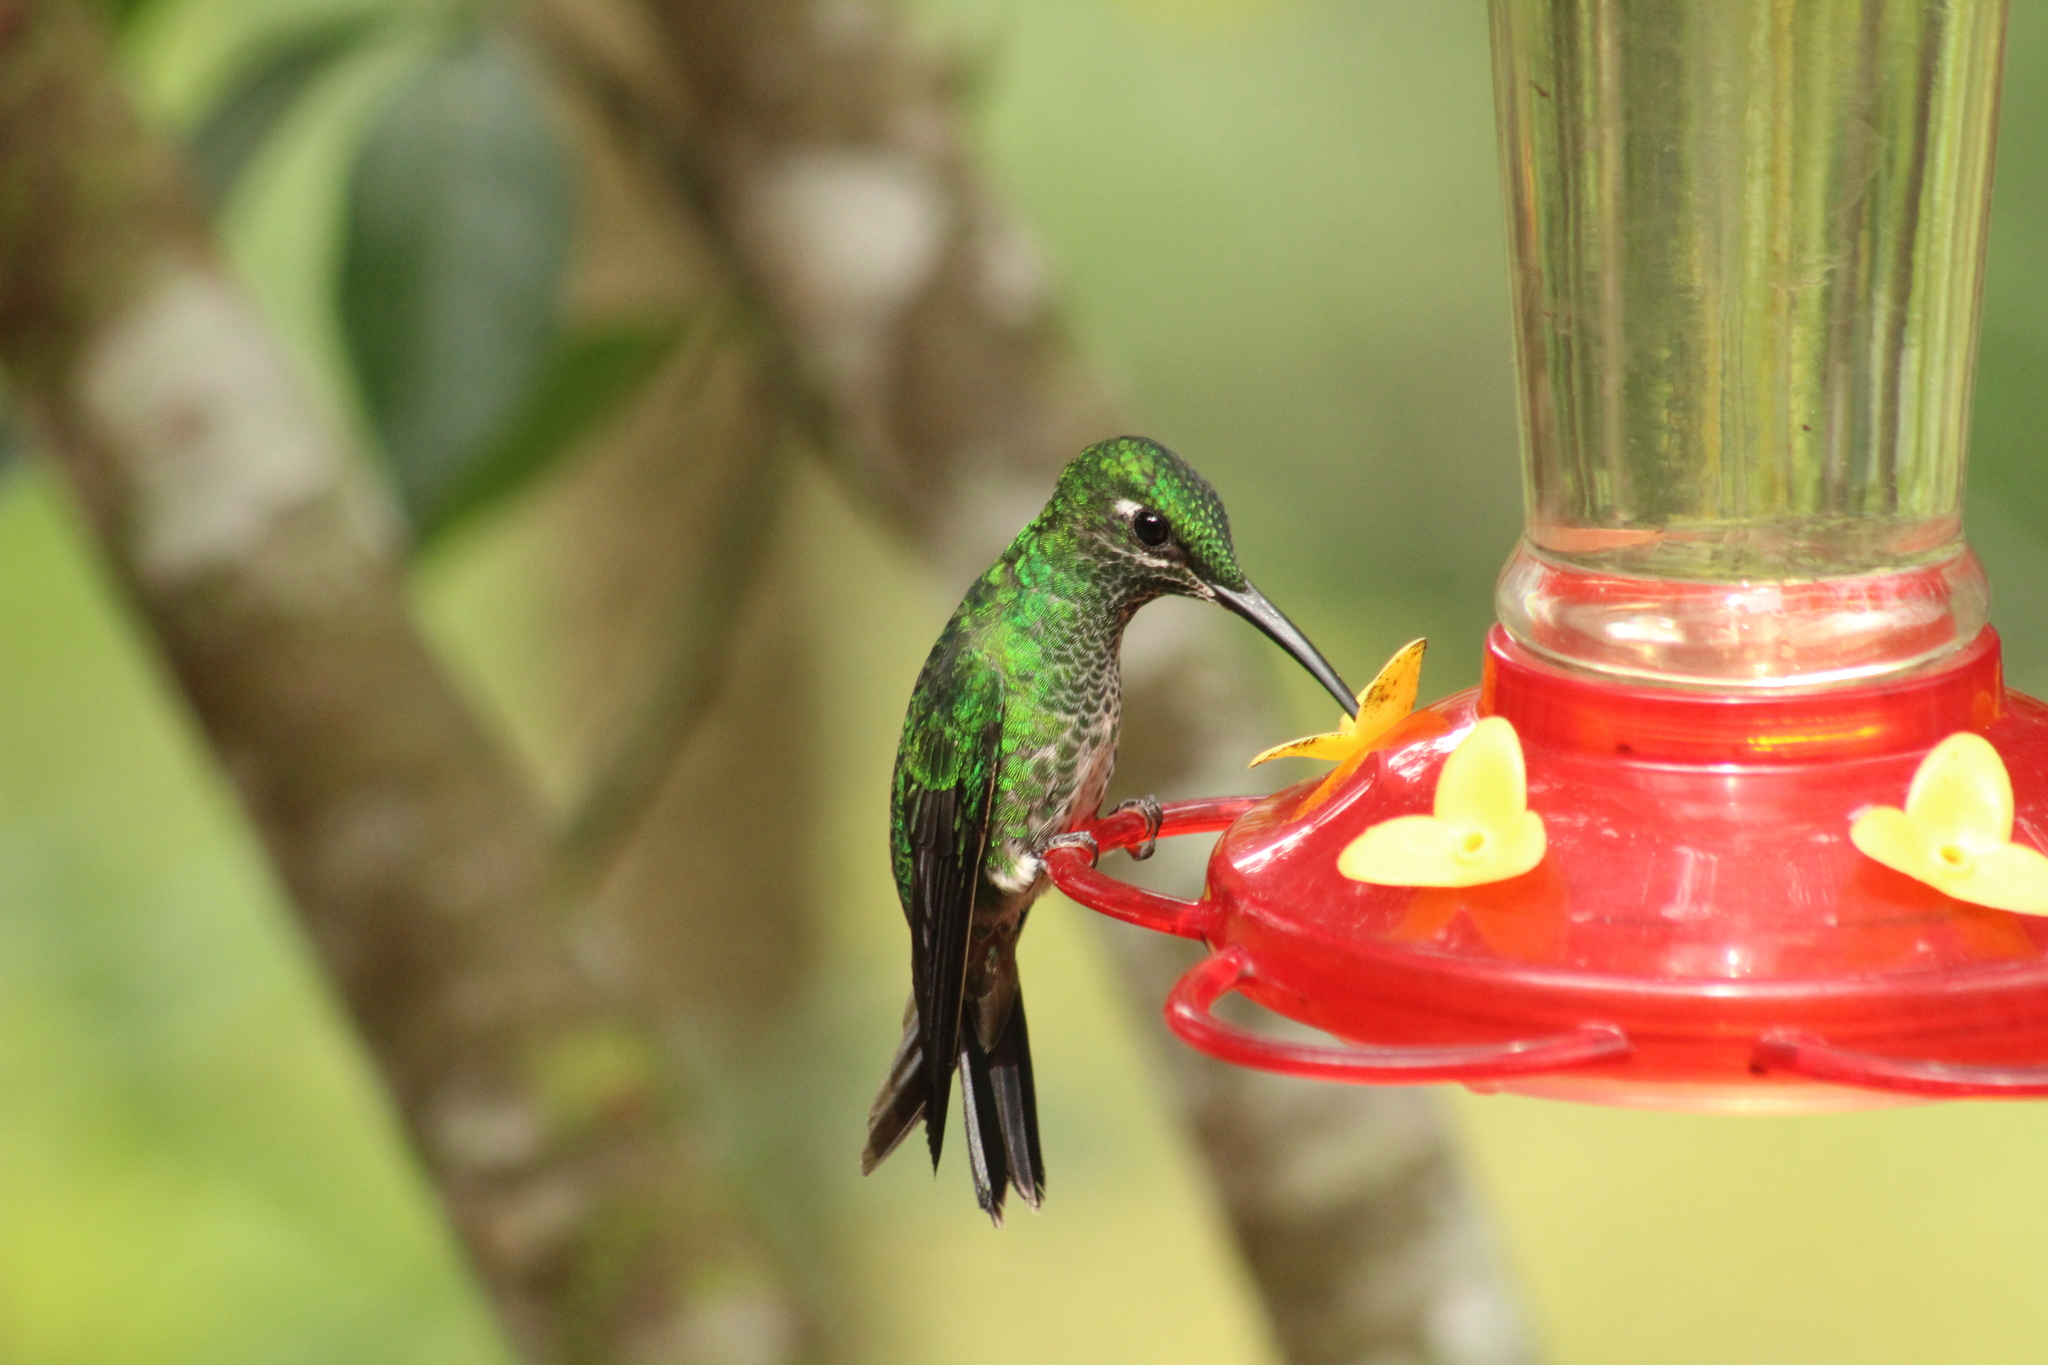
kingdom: Animalia
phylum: Chordata
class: Aves
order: Apodiformes
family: Trochilidae
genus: Heliodoxa
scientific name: Heliodoxa jacula
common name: Green-crowned brilliant
